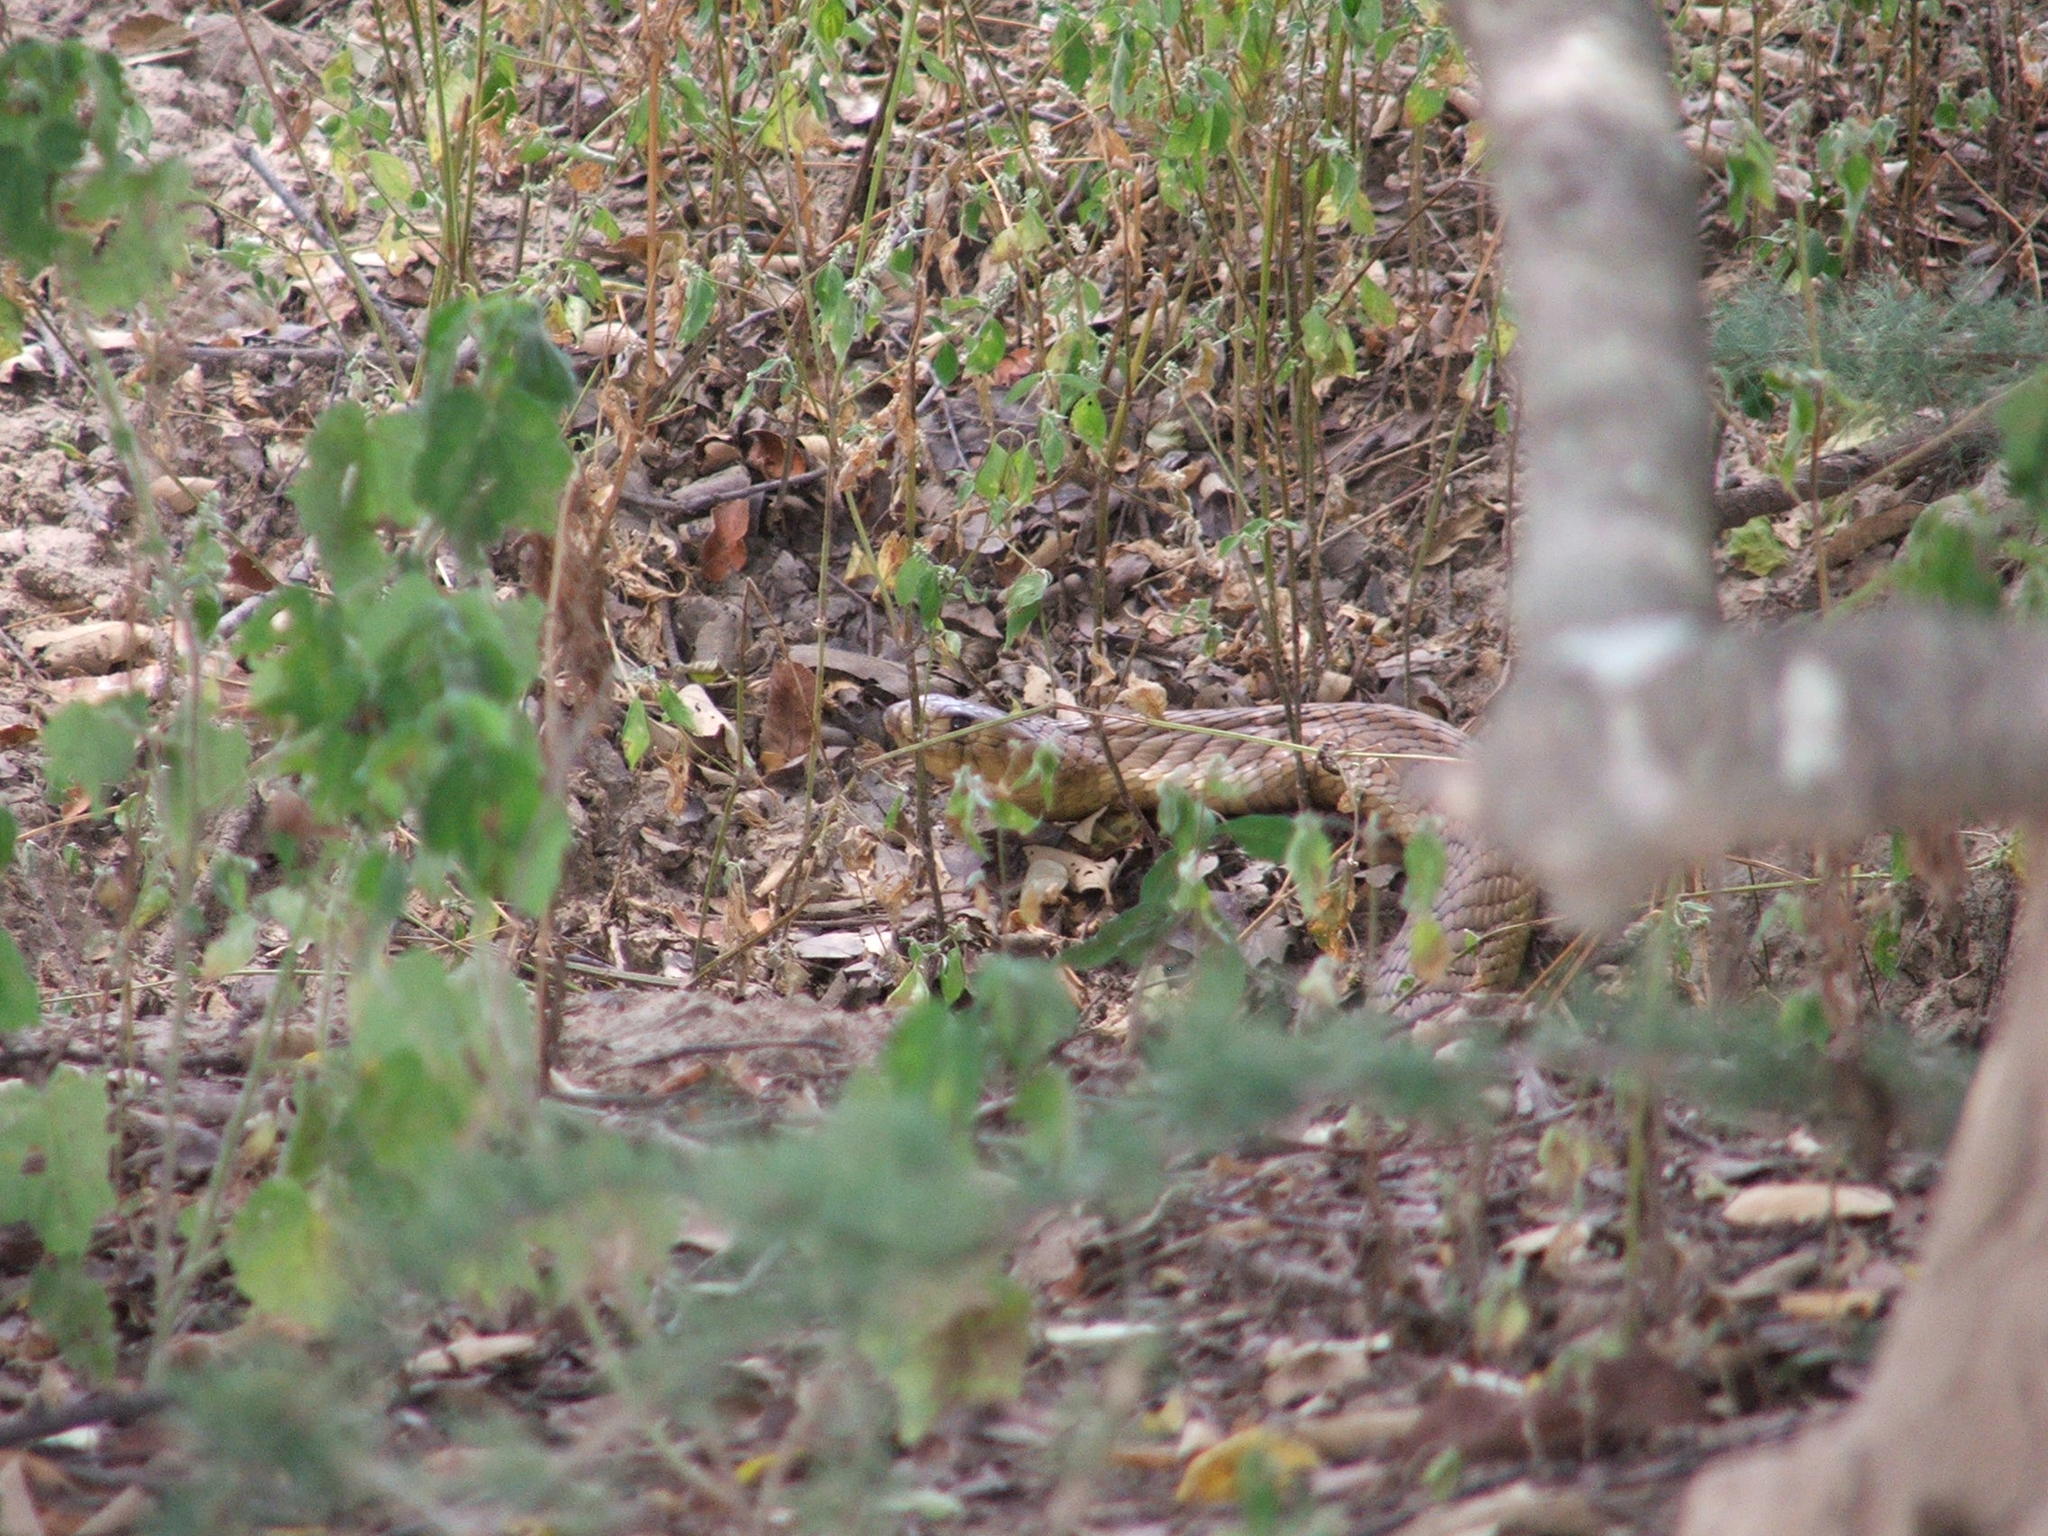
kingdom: Animalia
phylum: Chordata
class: Squamata
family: Elapidae
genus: Naja
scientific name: Naja annulifera
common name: Snouted cobra
